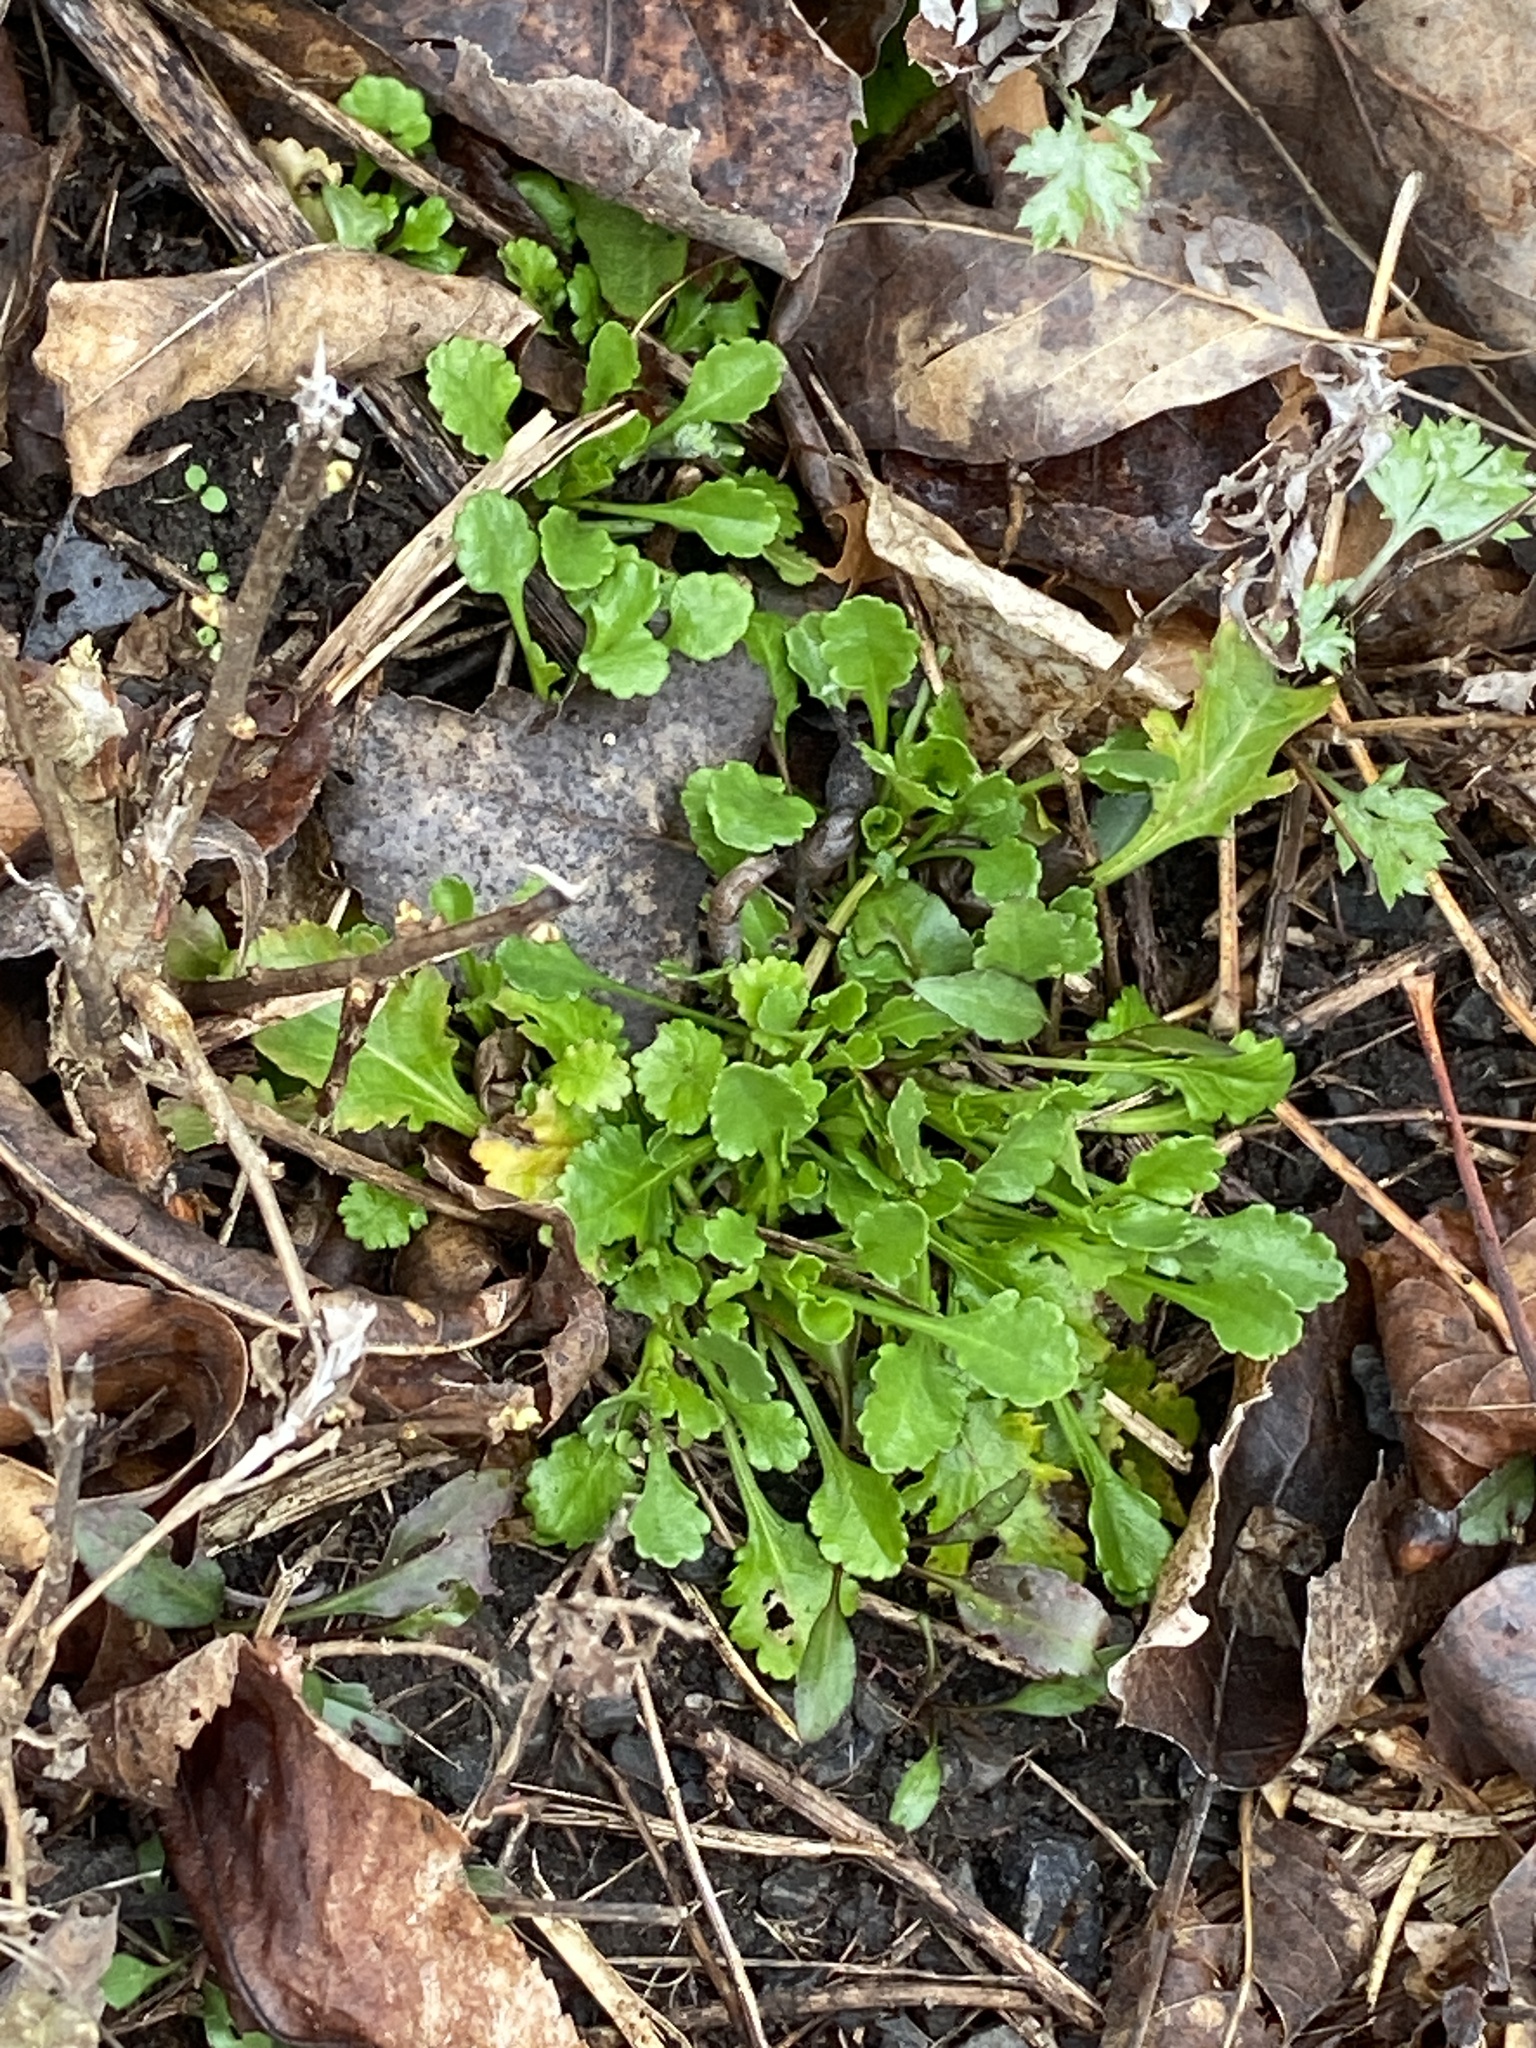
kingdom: Plantae
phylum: Tracheophyta
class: Magnoliopsida
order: Asterales
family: Asteraceae
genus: Leucanthemum
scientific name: Leucanthemum vulgare
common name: Oxeye daisy
